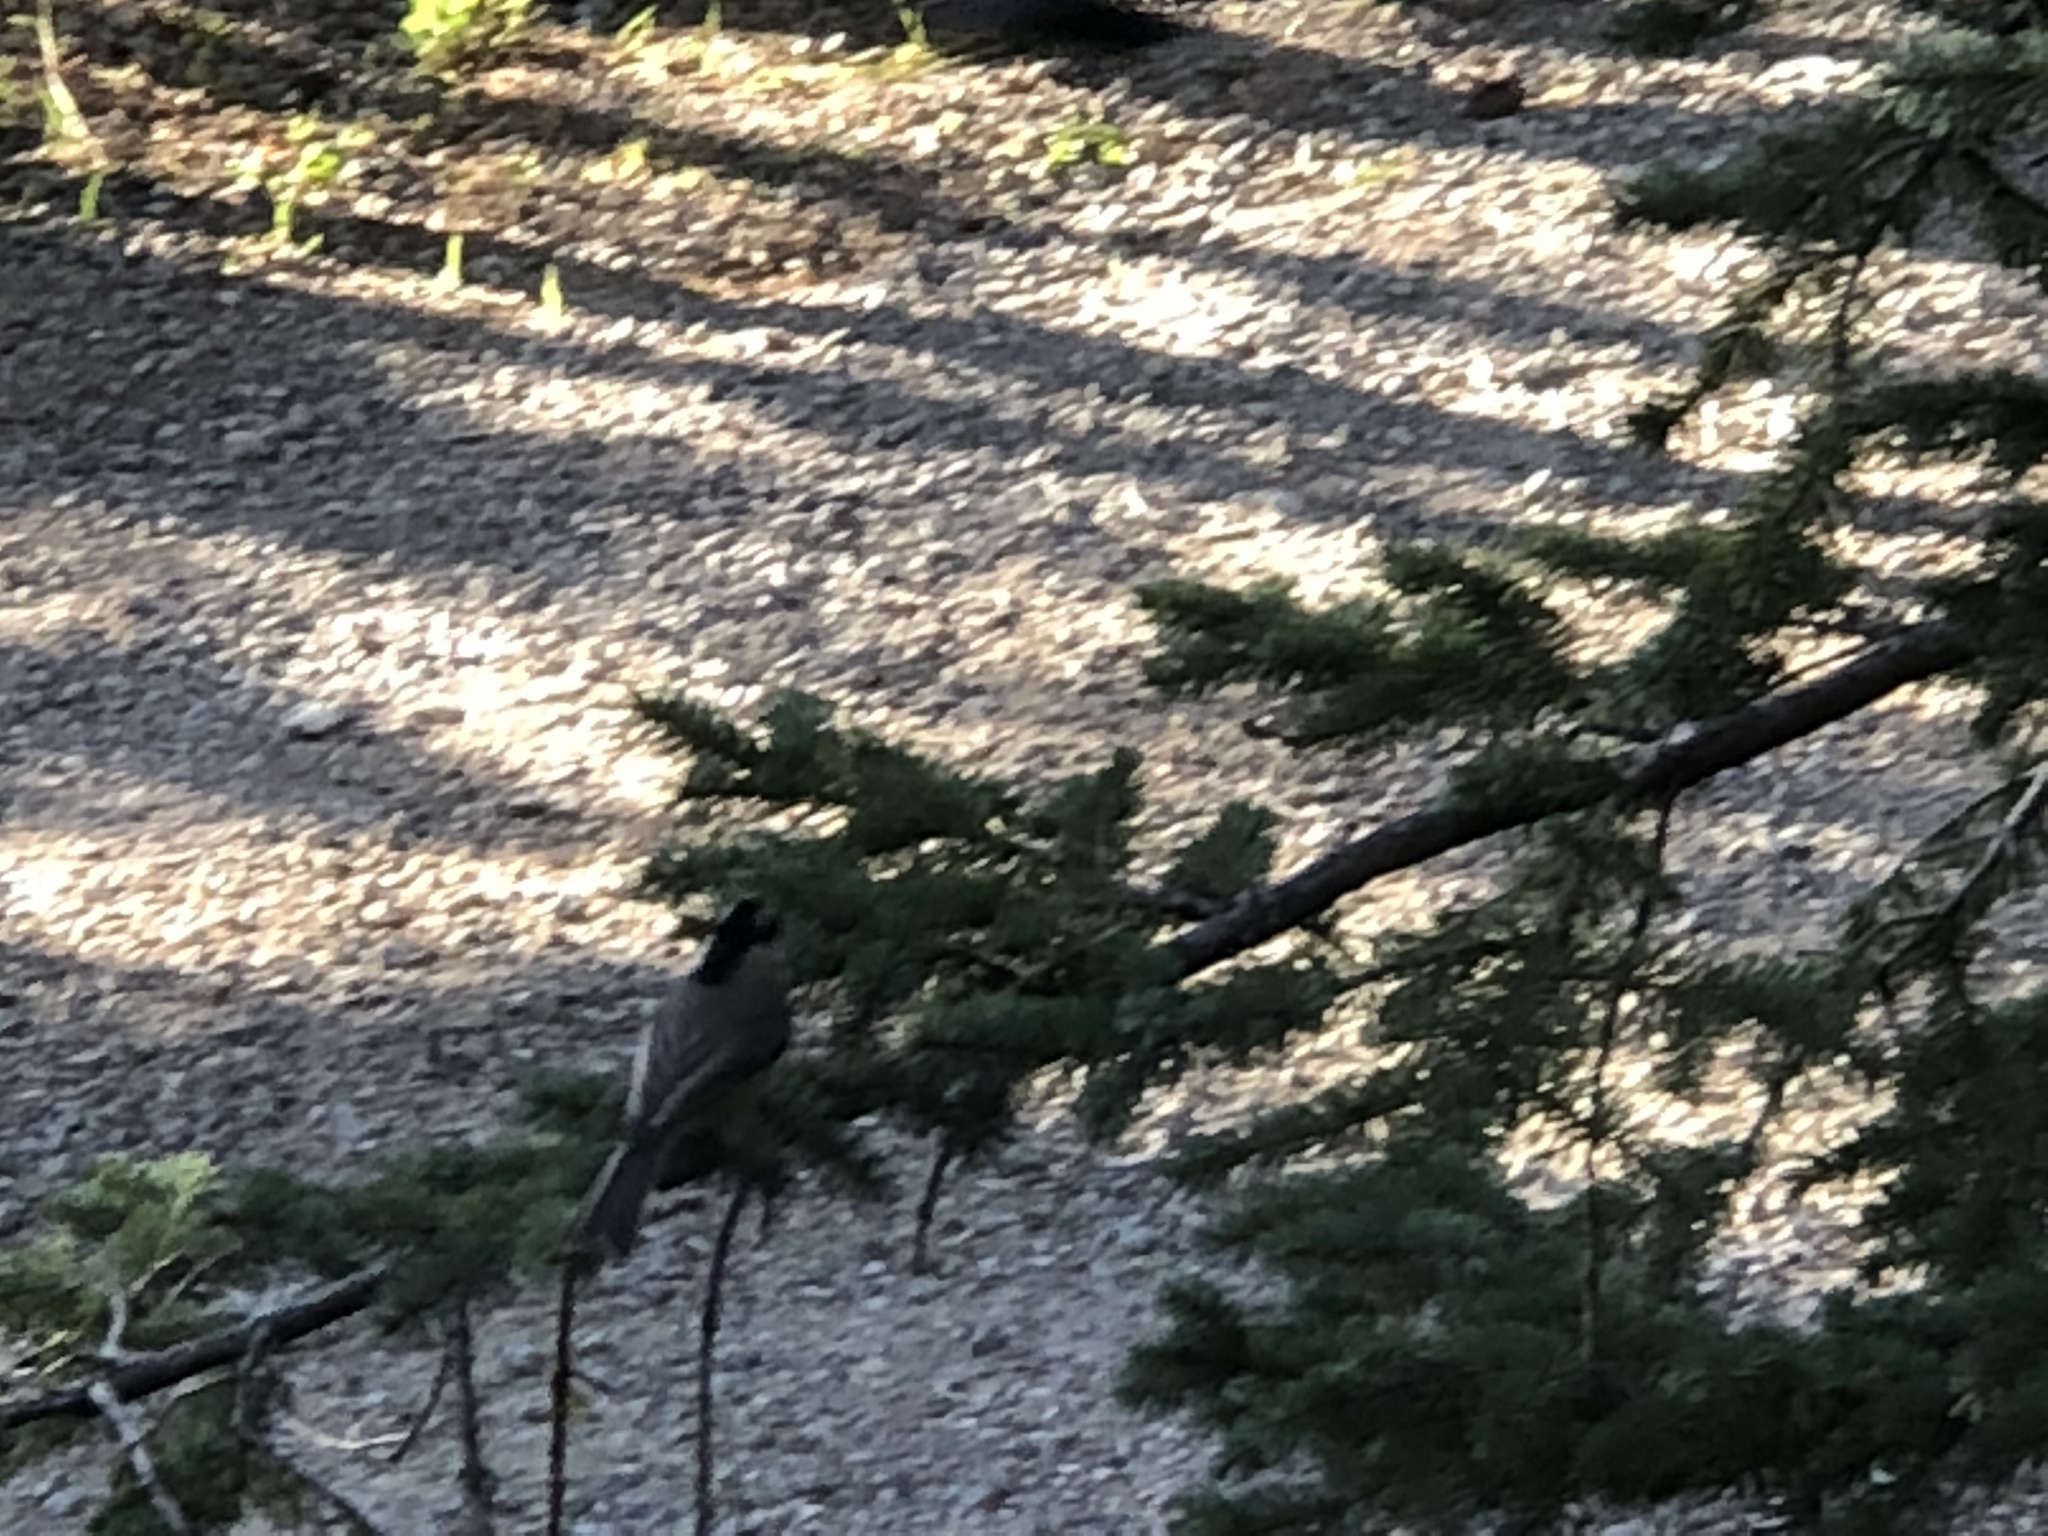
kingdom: Animalia
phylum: Chordata
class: Aves
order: Passeriformes
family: Paridae
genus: Poecile
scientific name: Poecile gambeli
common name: Mountain chickadee
